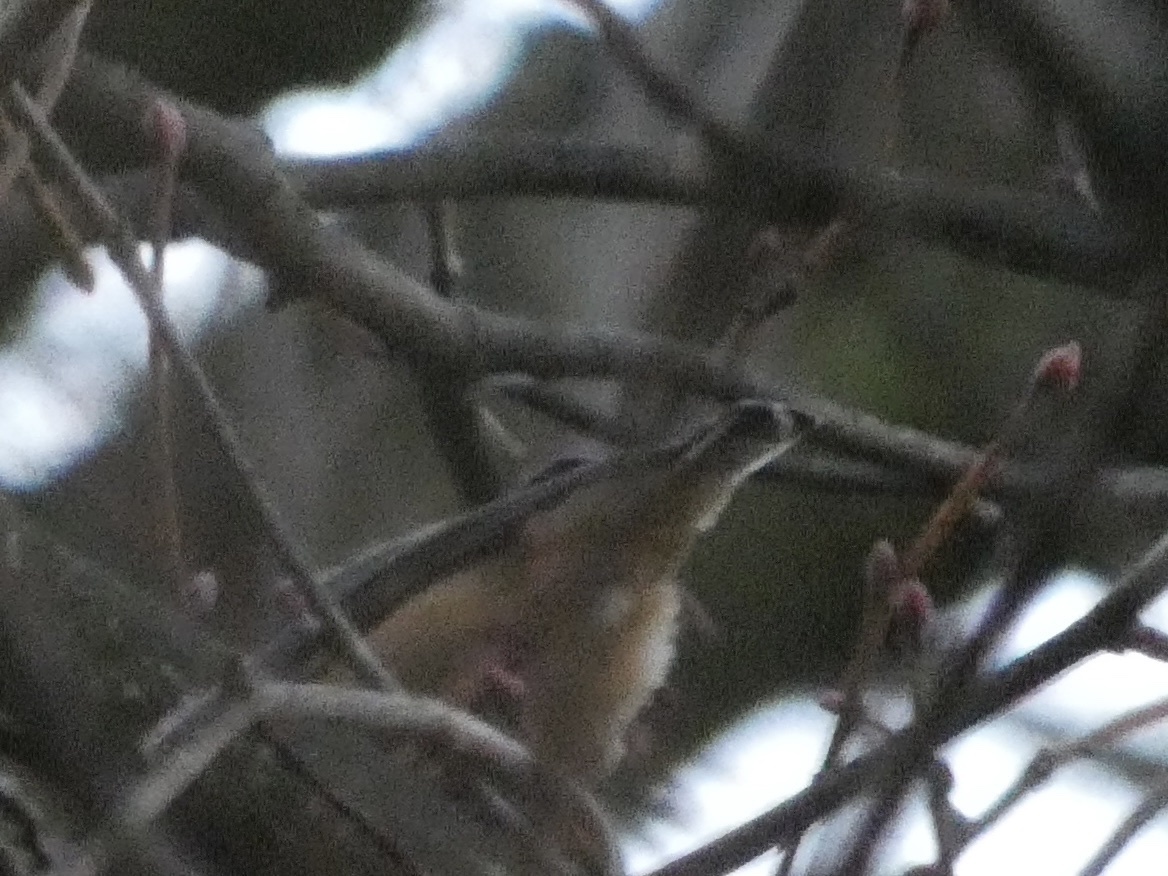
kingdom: Animalia
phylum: Chordata
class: Aves
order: Passeriformes
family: Sittidae
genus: Sitta
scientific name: Sitta europaea
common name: Eurasian nuthatch
